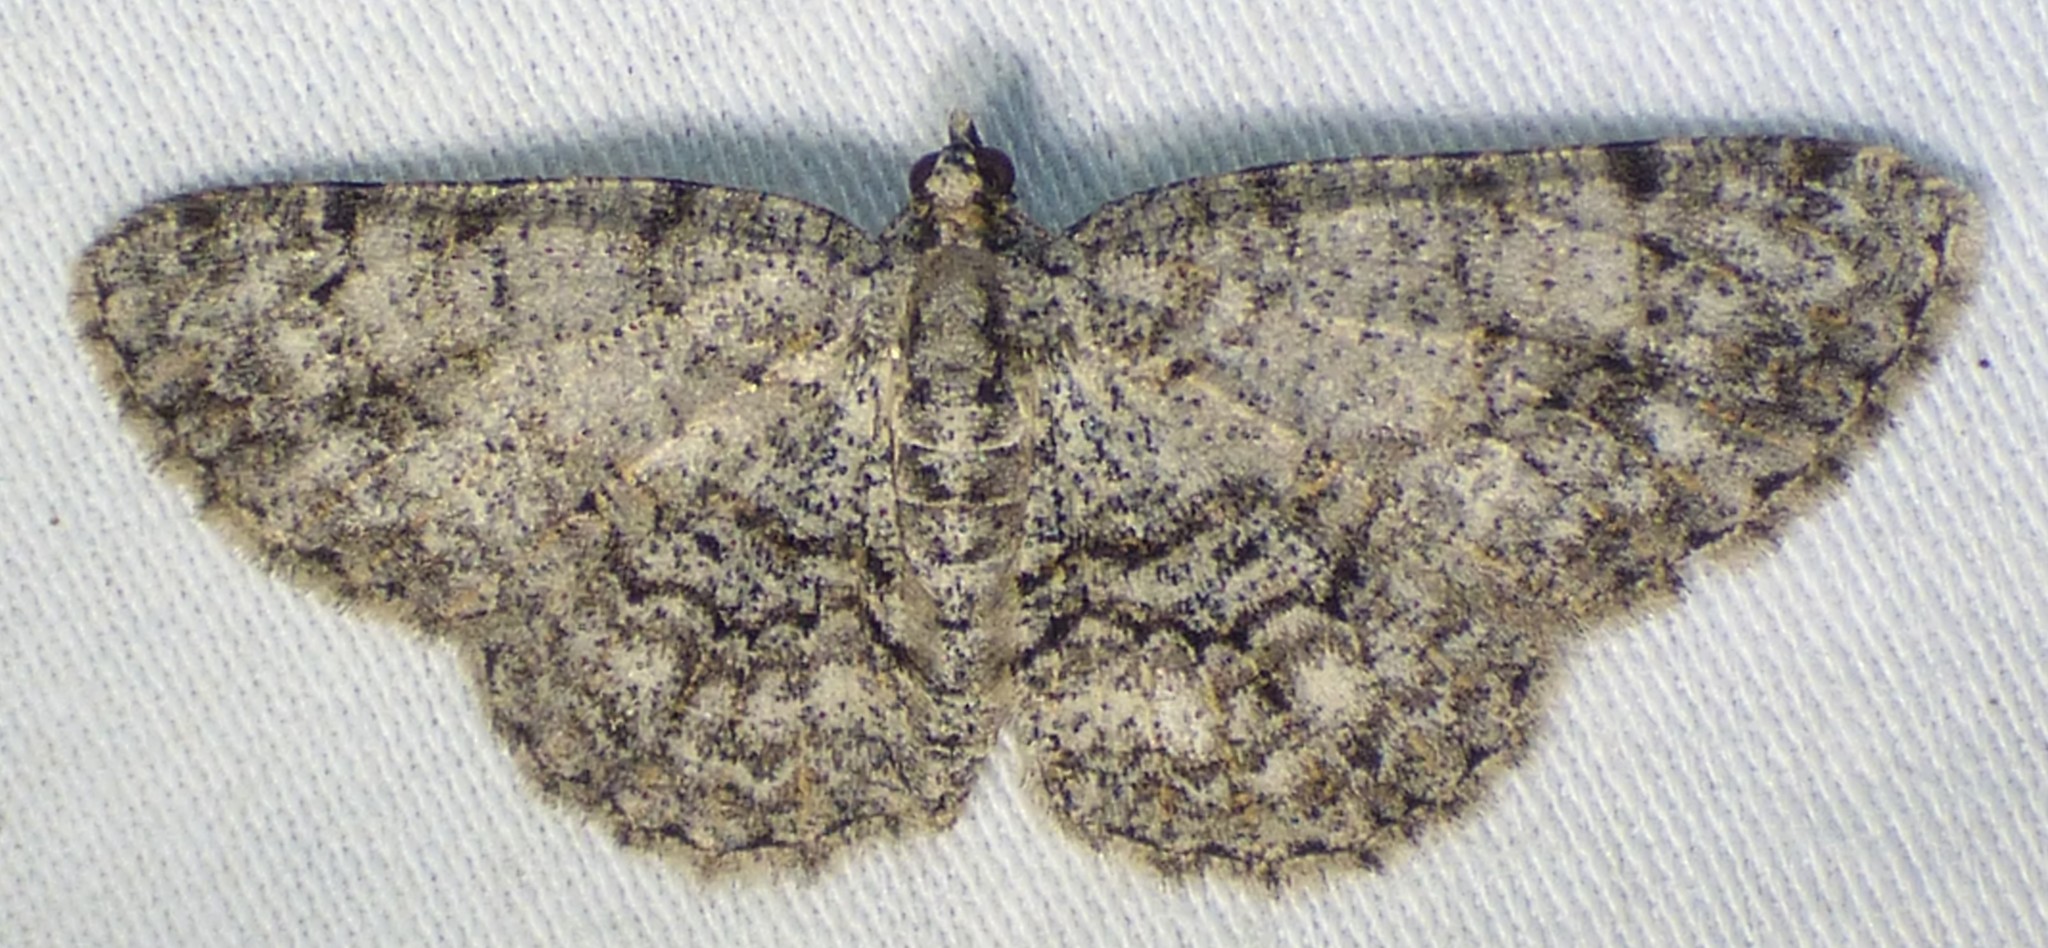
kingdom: Animalia
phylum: Arthropoda
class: Insecta
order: Lepidoptera
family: Geometridae
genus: Protoboarmia
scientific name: Protoboarmia porcelaria
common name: Porcelain gray
